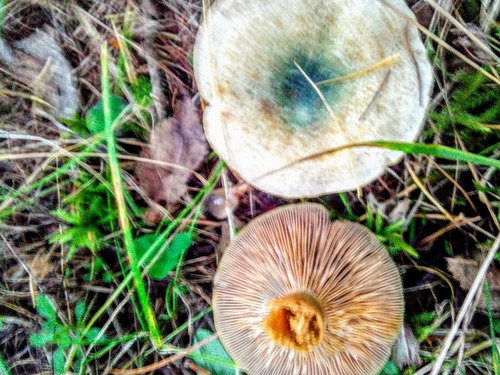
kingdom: Fungi
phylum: Basidiomycota
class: Agaricomycetes
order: Russulales
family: Russulaceae
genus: Lactarius
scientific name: Lactarius deterrimus
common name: False saffron milkcap
